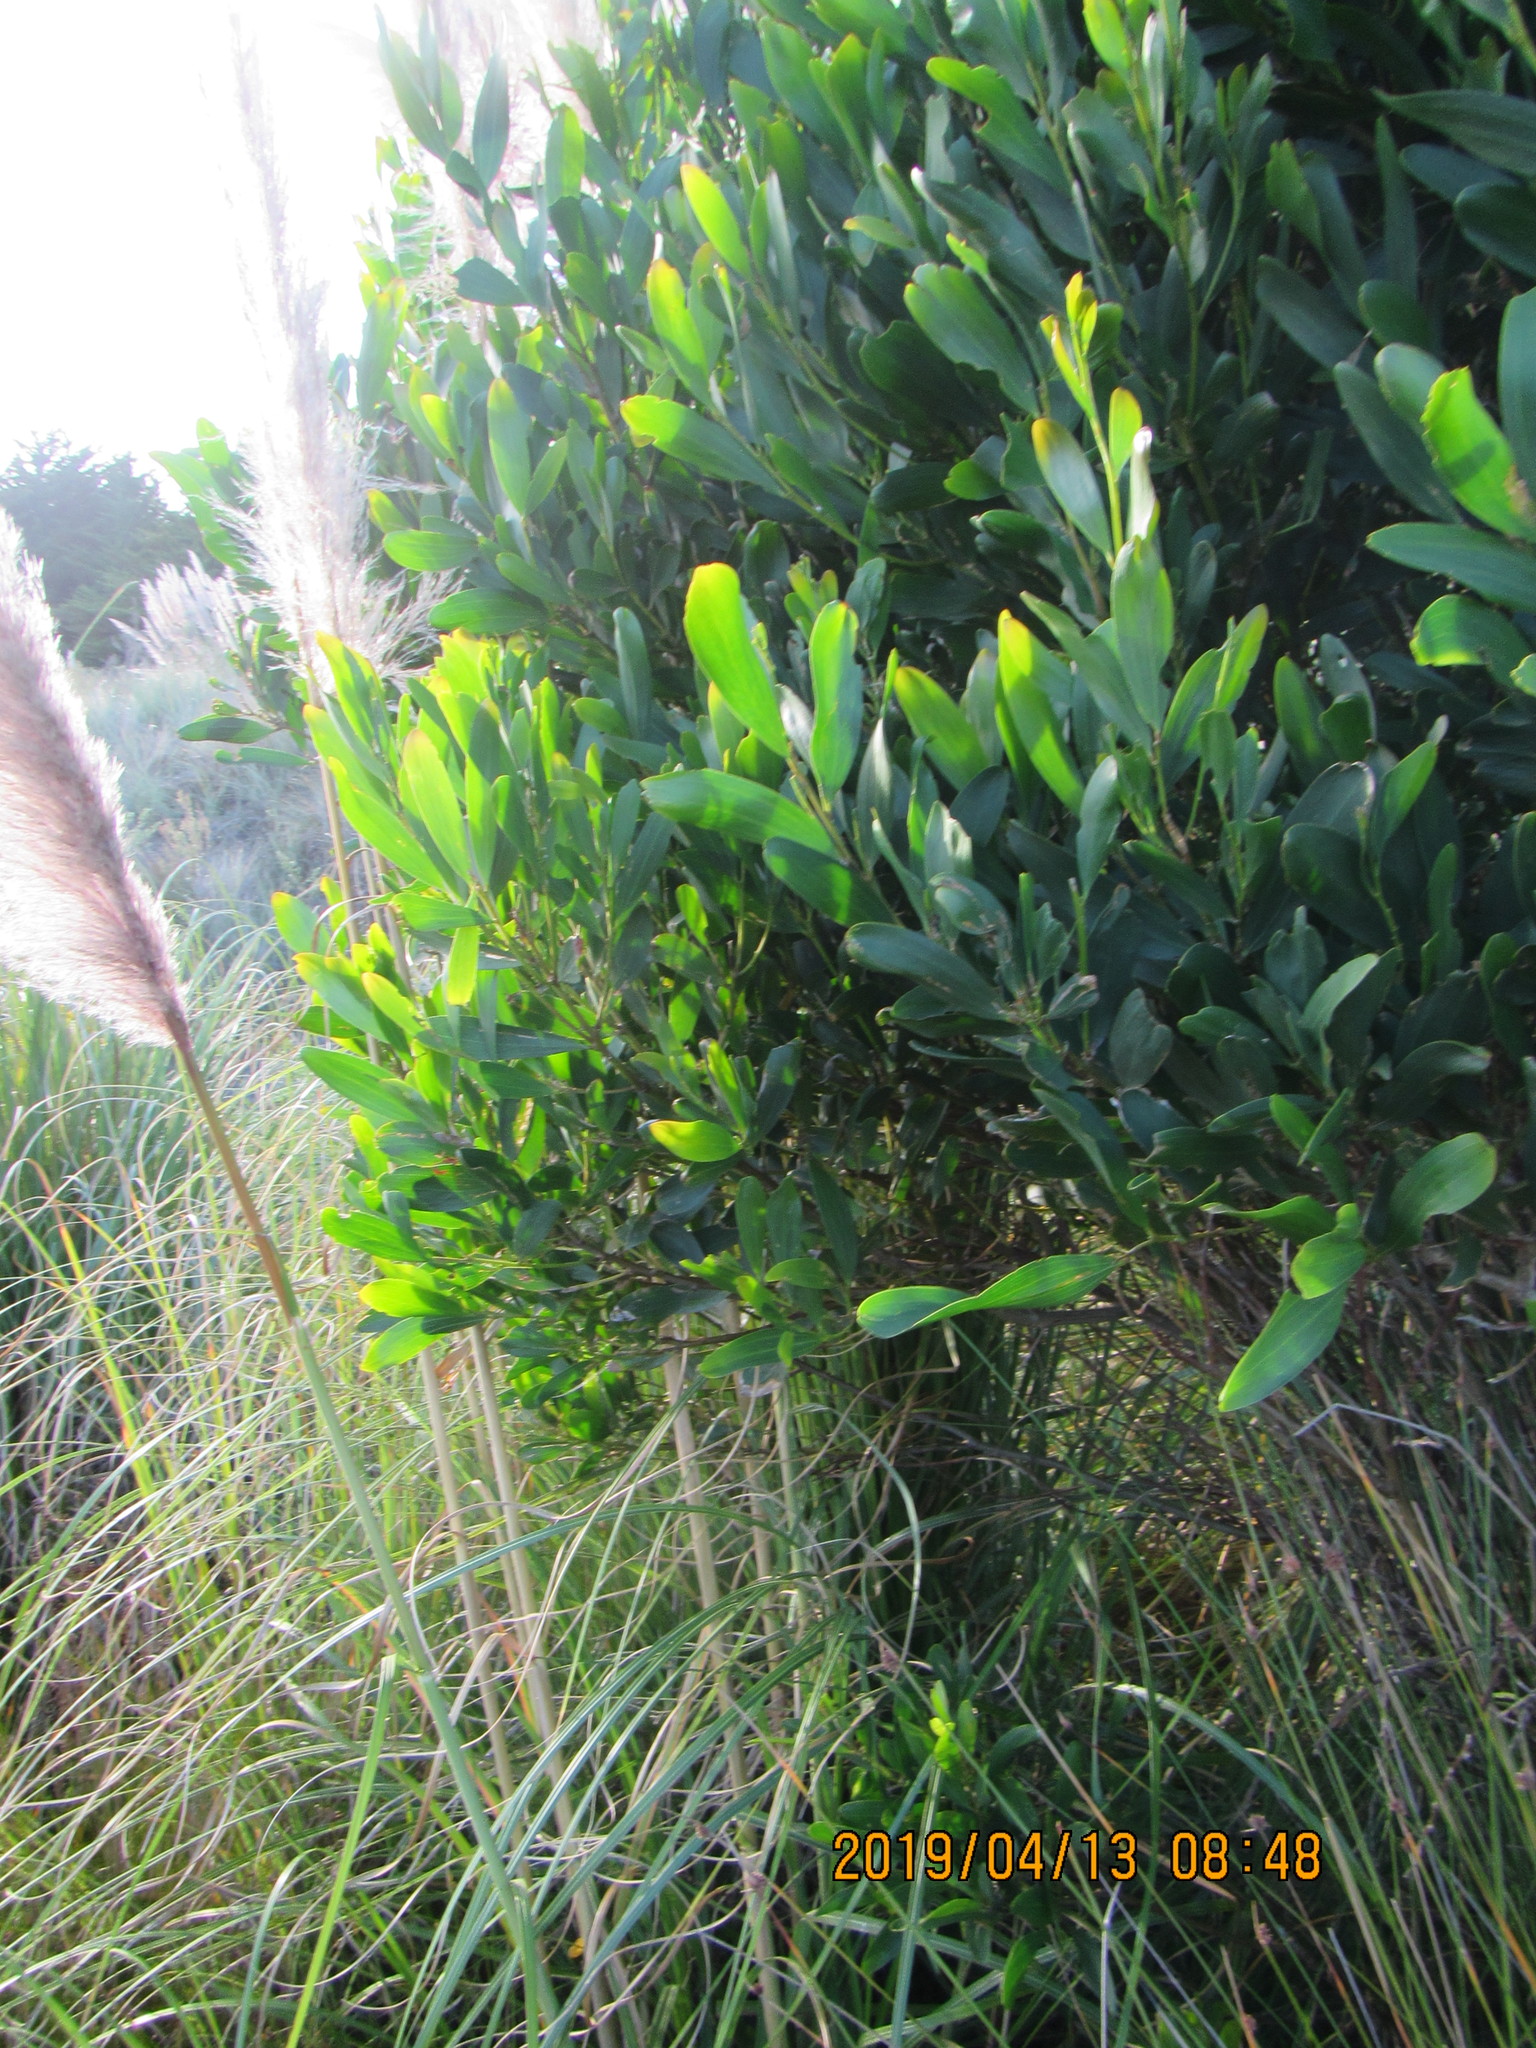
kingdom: Plantae
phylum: Tracheophyta
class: Magnoliopsida
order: Fabales
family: Fabaceae
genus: Acacia
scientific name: Acacia longifolia
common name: Sydney golden wattle
